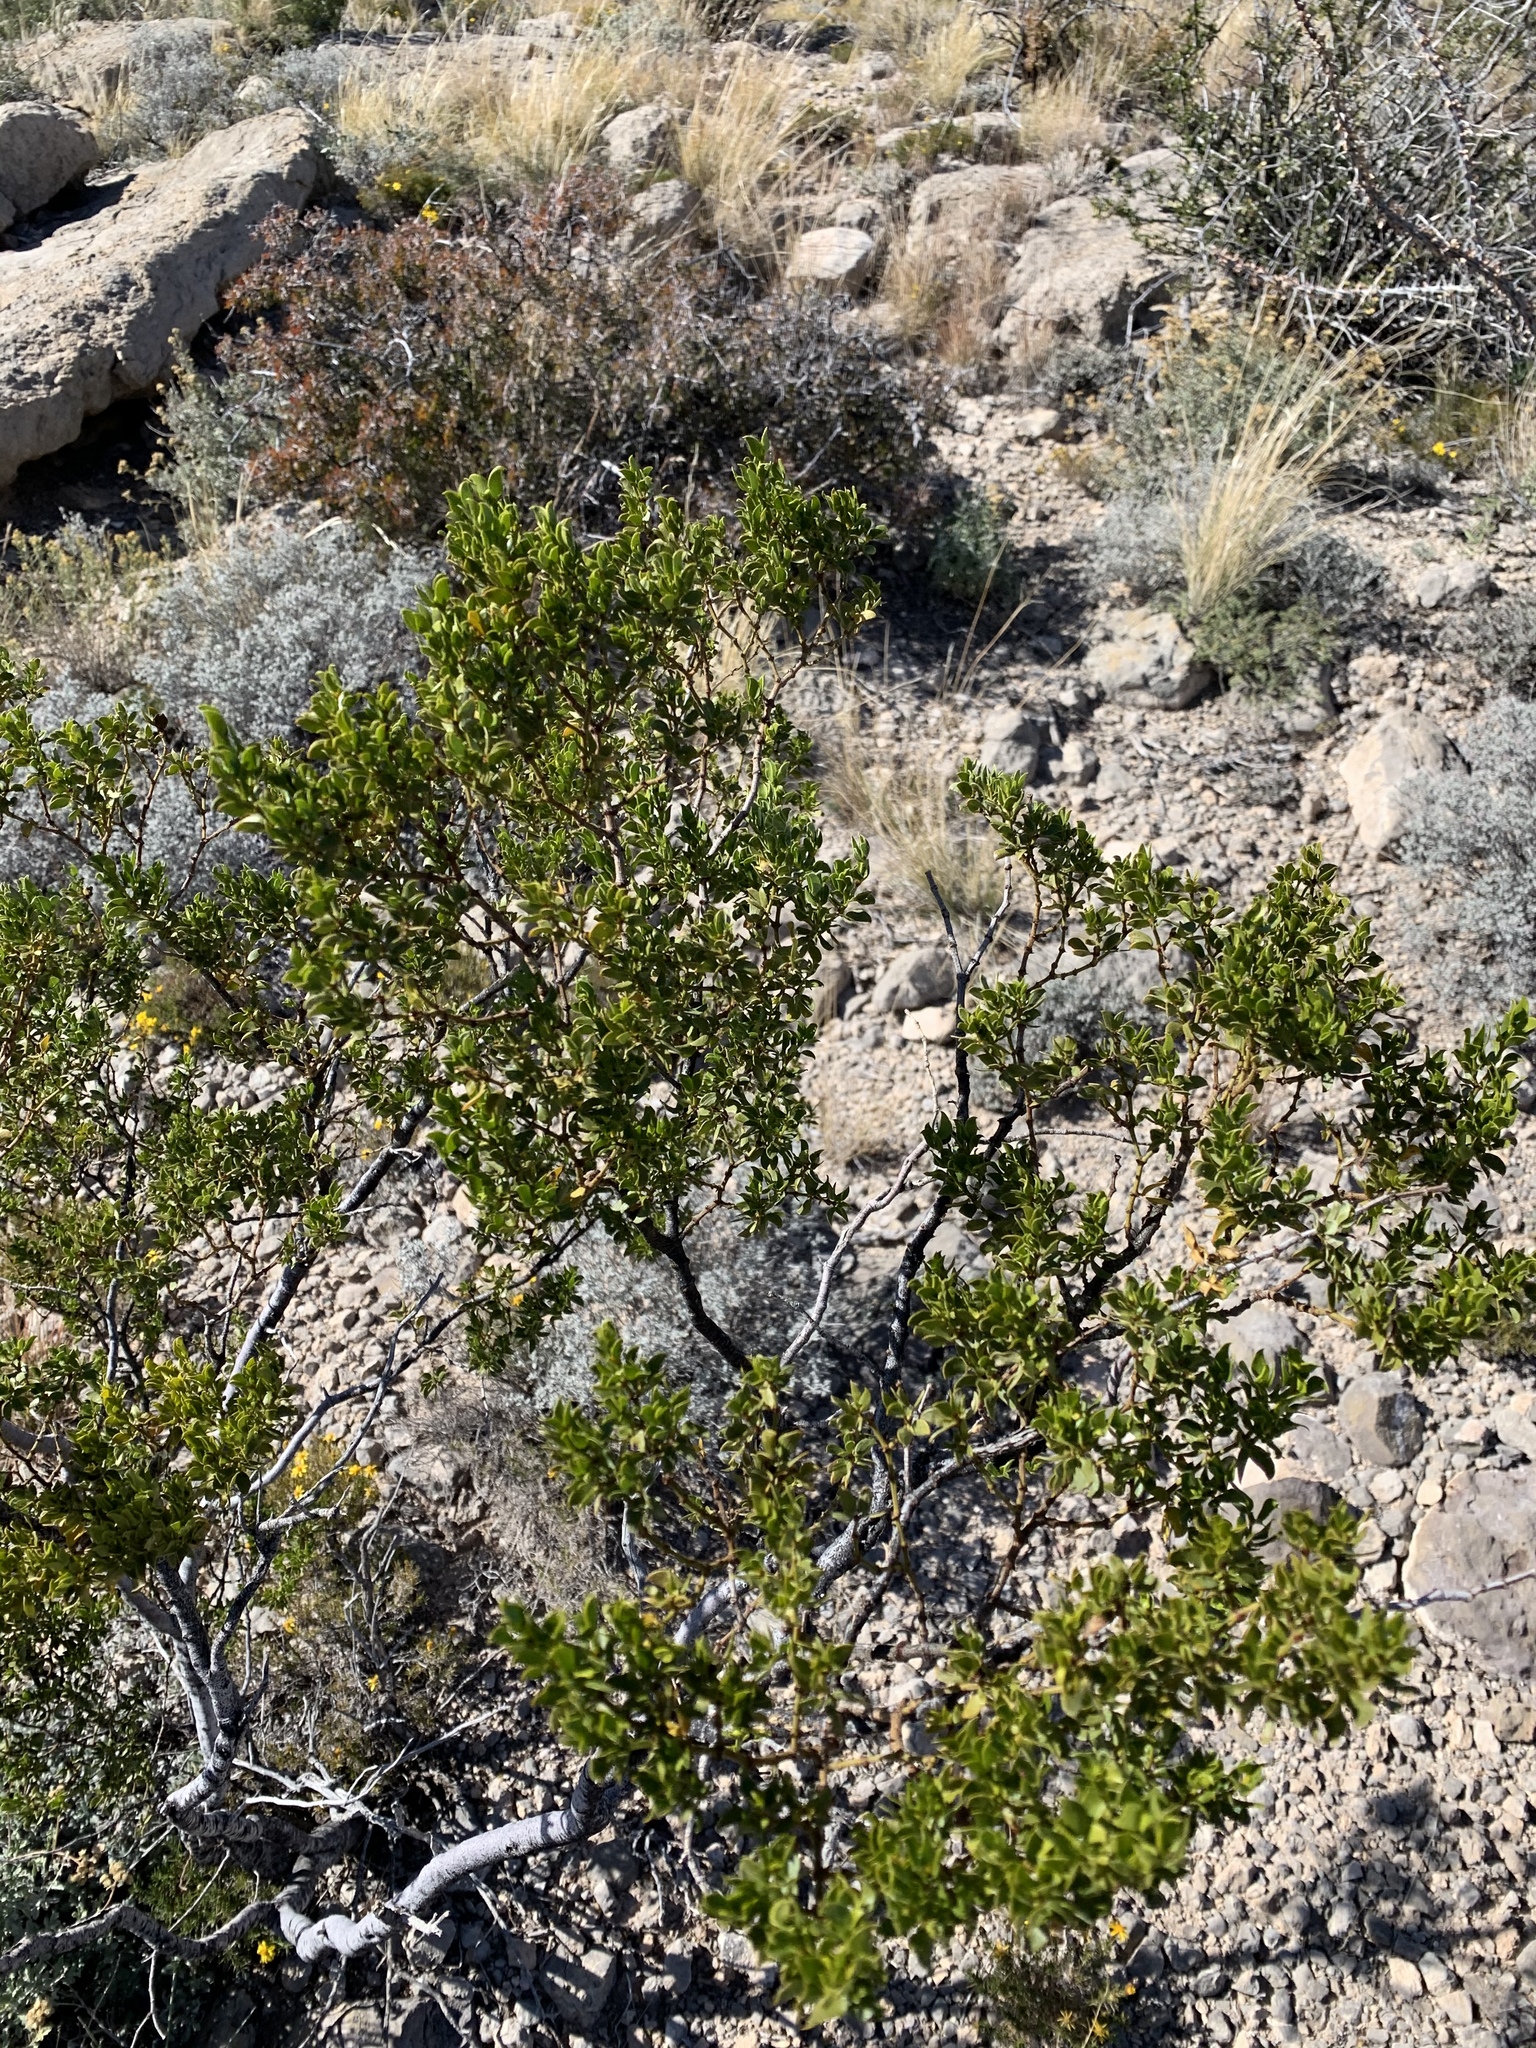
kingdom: Plantae
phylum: Tracheophyta
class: Magnoliopsida
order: Zygophyllales
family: Zygophyllaceae
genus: Larrea
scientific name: Larrea tridentata
